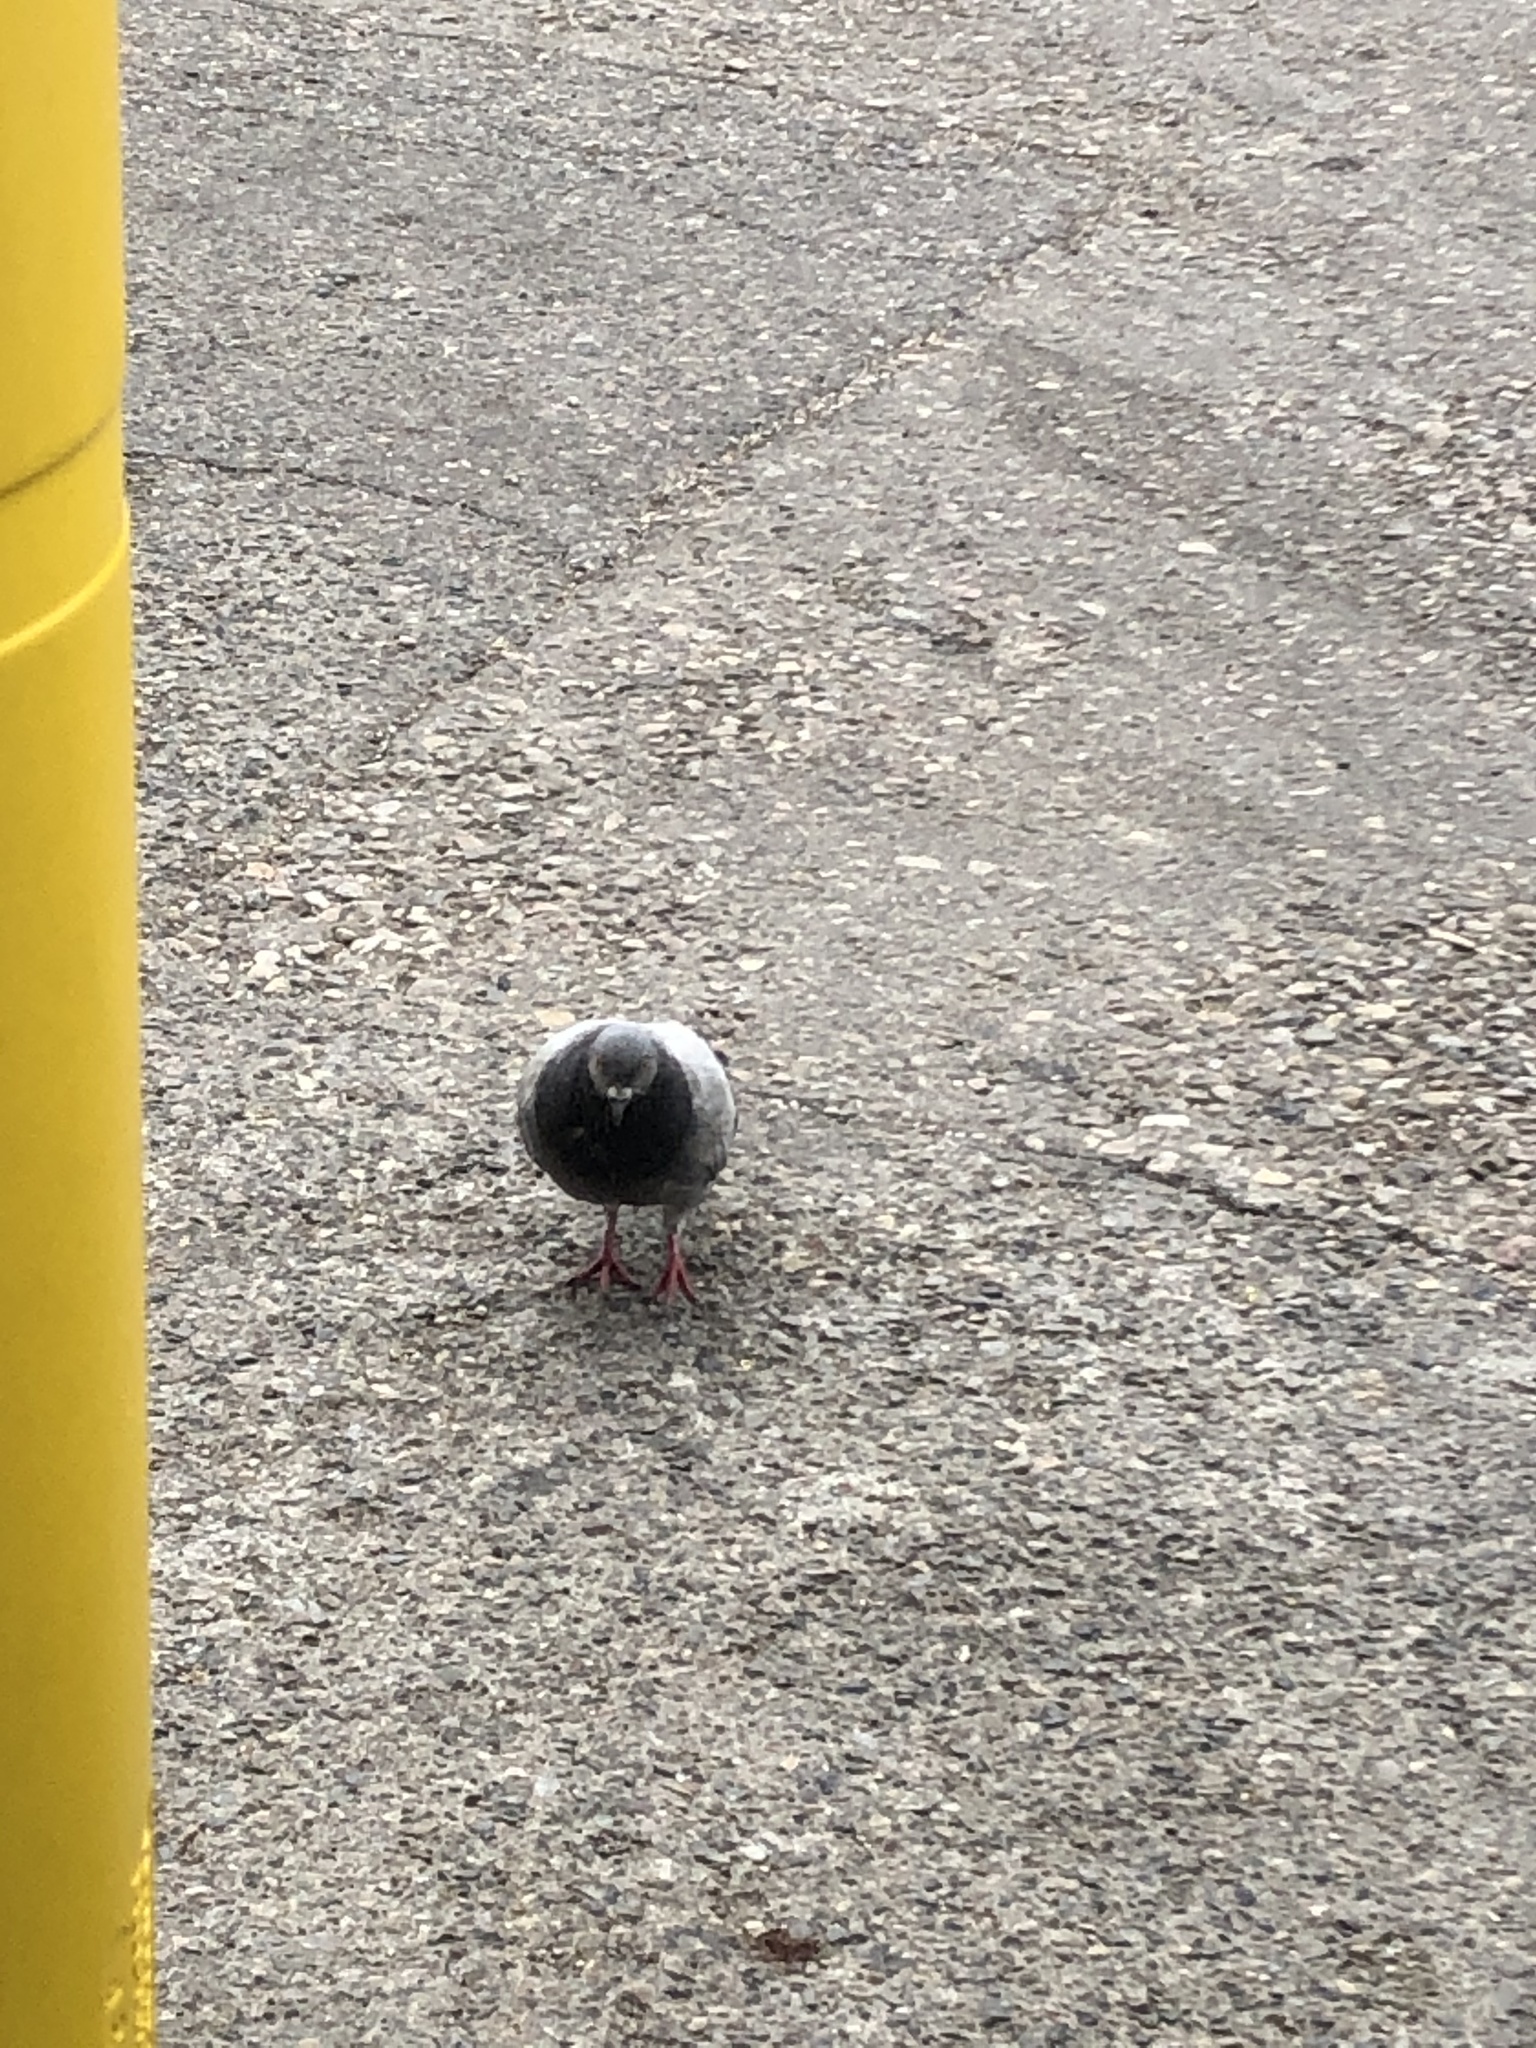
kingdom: Animalia
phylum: Chordata
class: Aves
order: Columbiformes
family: Columbidae
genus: Columba
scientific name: Columba livia
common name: Rock pigeon
